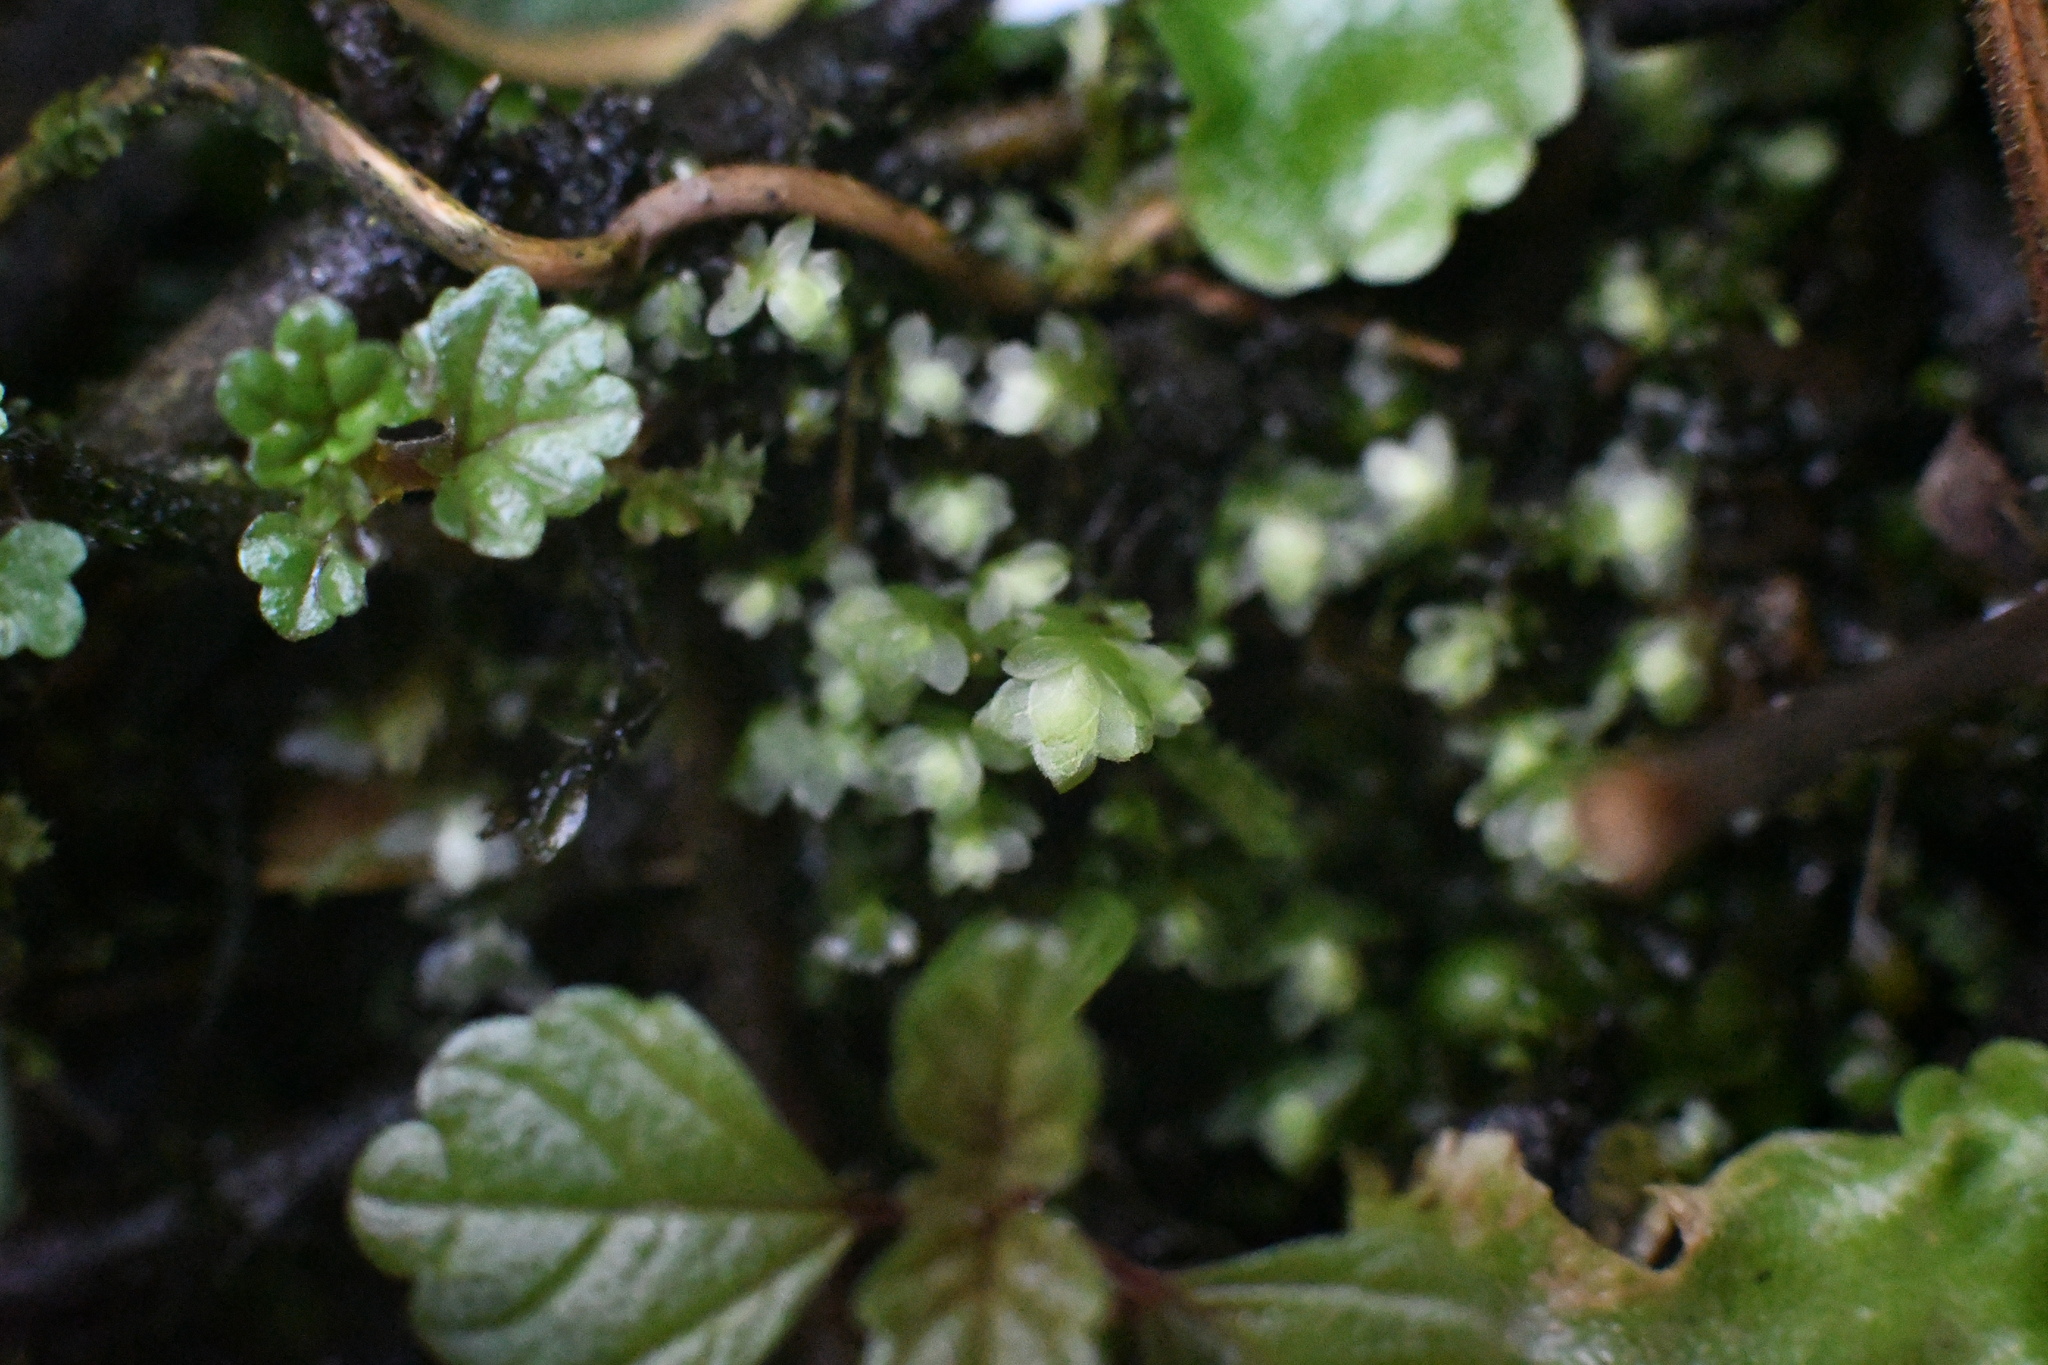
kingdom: Plantae
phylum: Bryophyta
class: Bryopsida
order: Hookeriales
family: Daltoniaceae
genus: Achrophyllum
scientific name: Achrophyllum dentatum
